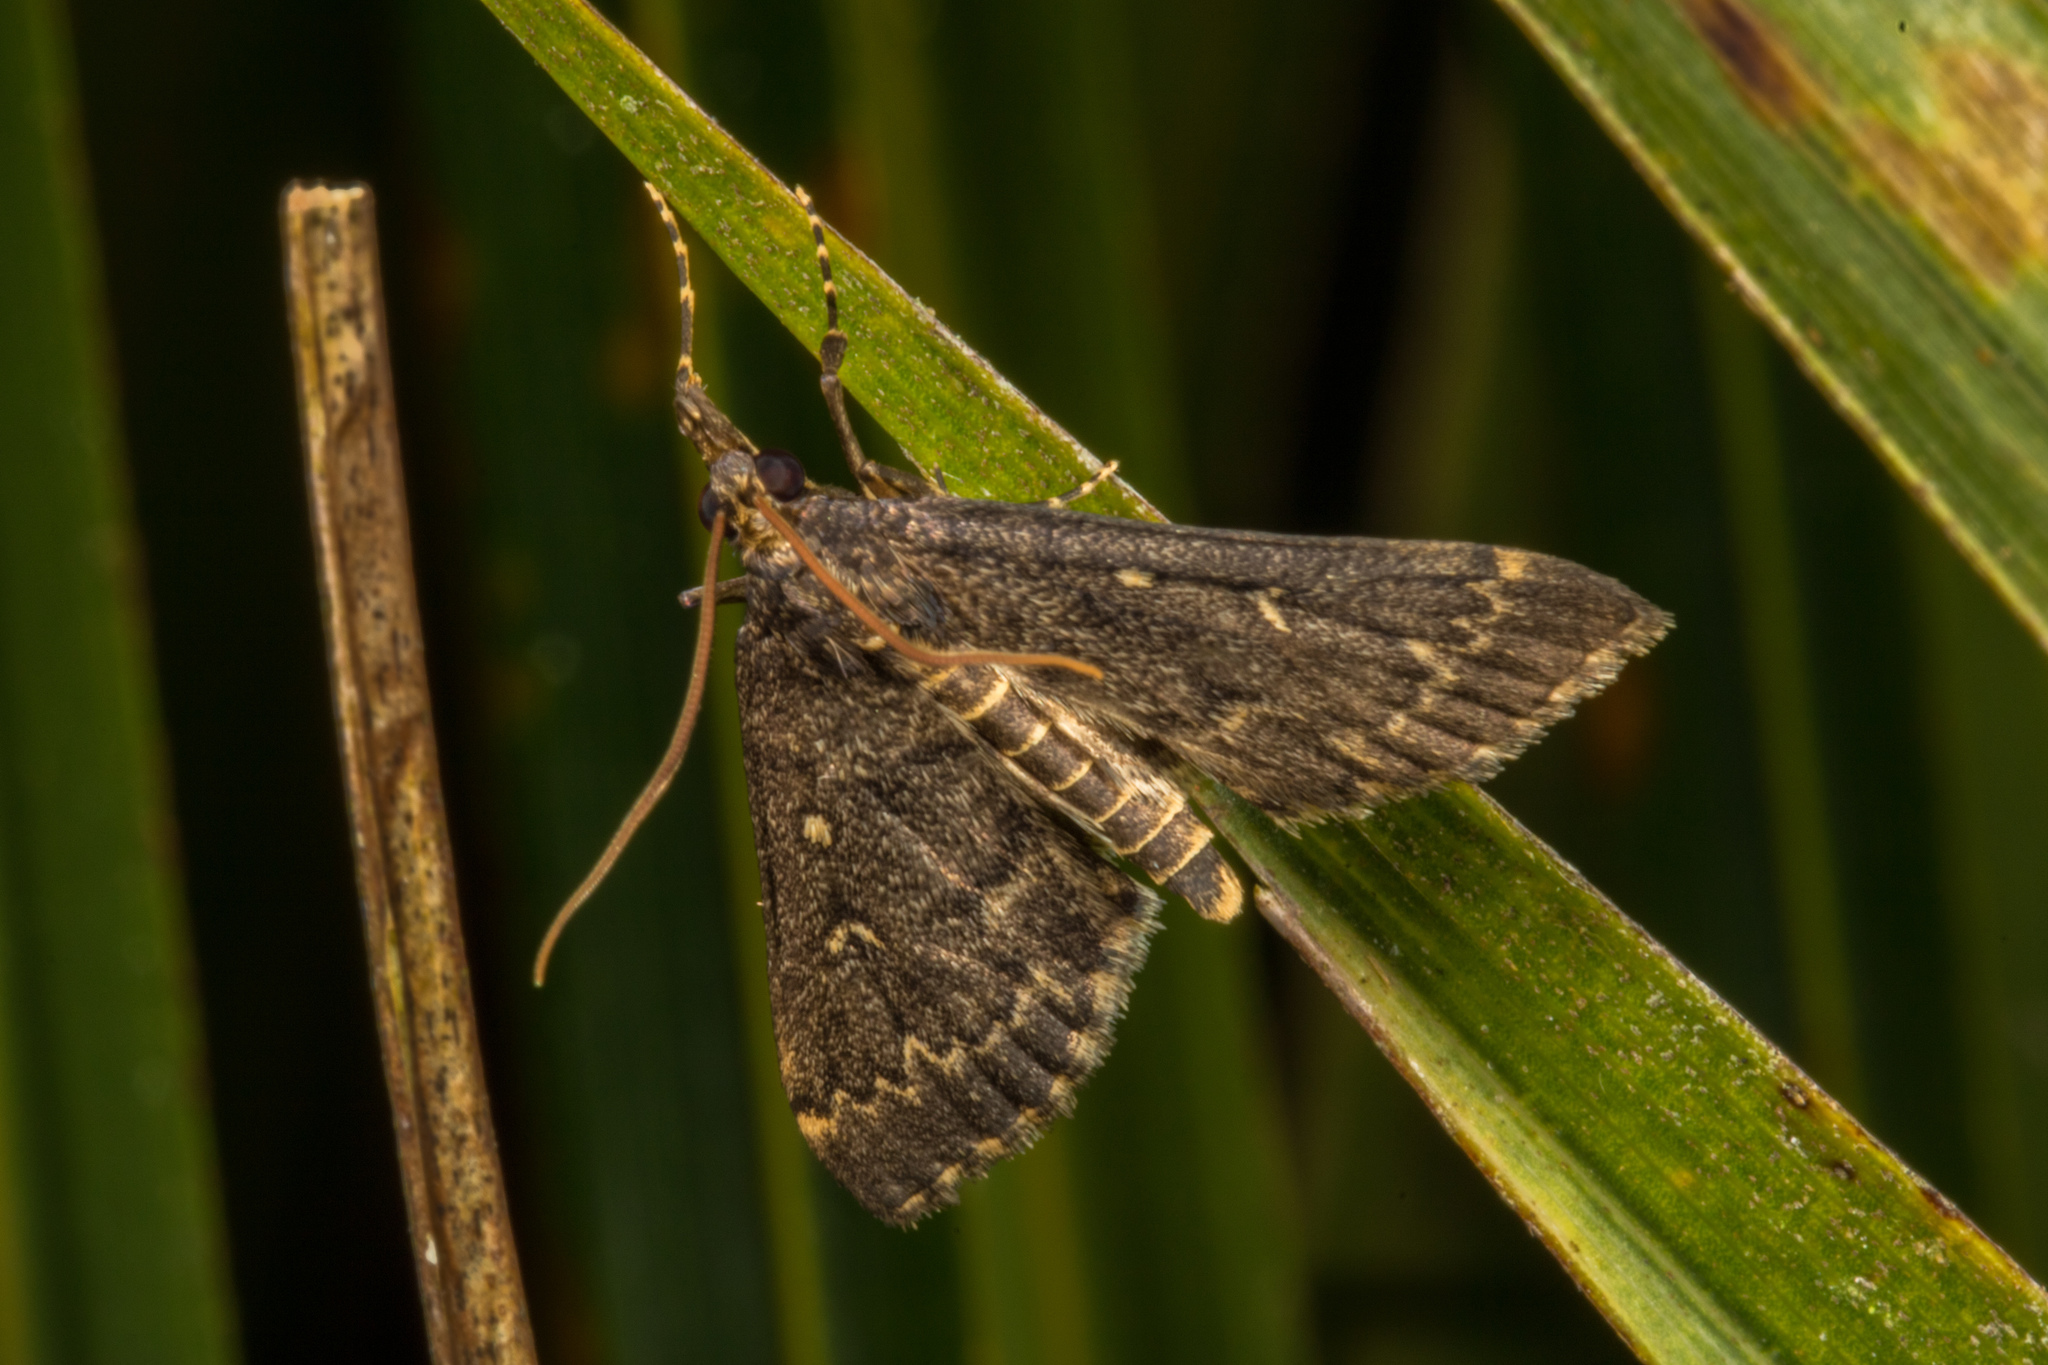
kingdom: Animalia
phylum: Arthropoda
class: Insecta
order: Lepidoptera
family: Crambidae
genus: Loxostege
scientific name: Loxostege Proternia philocapna
